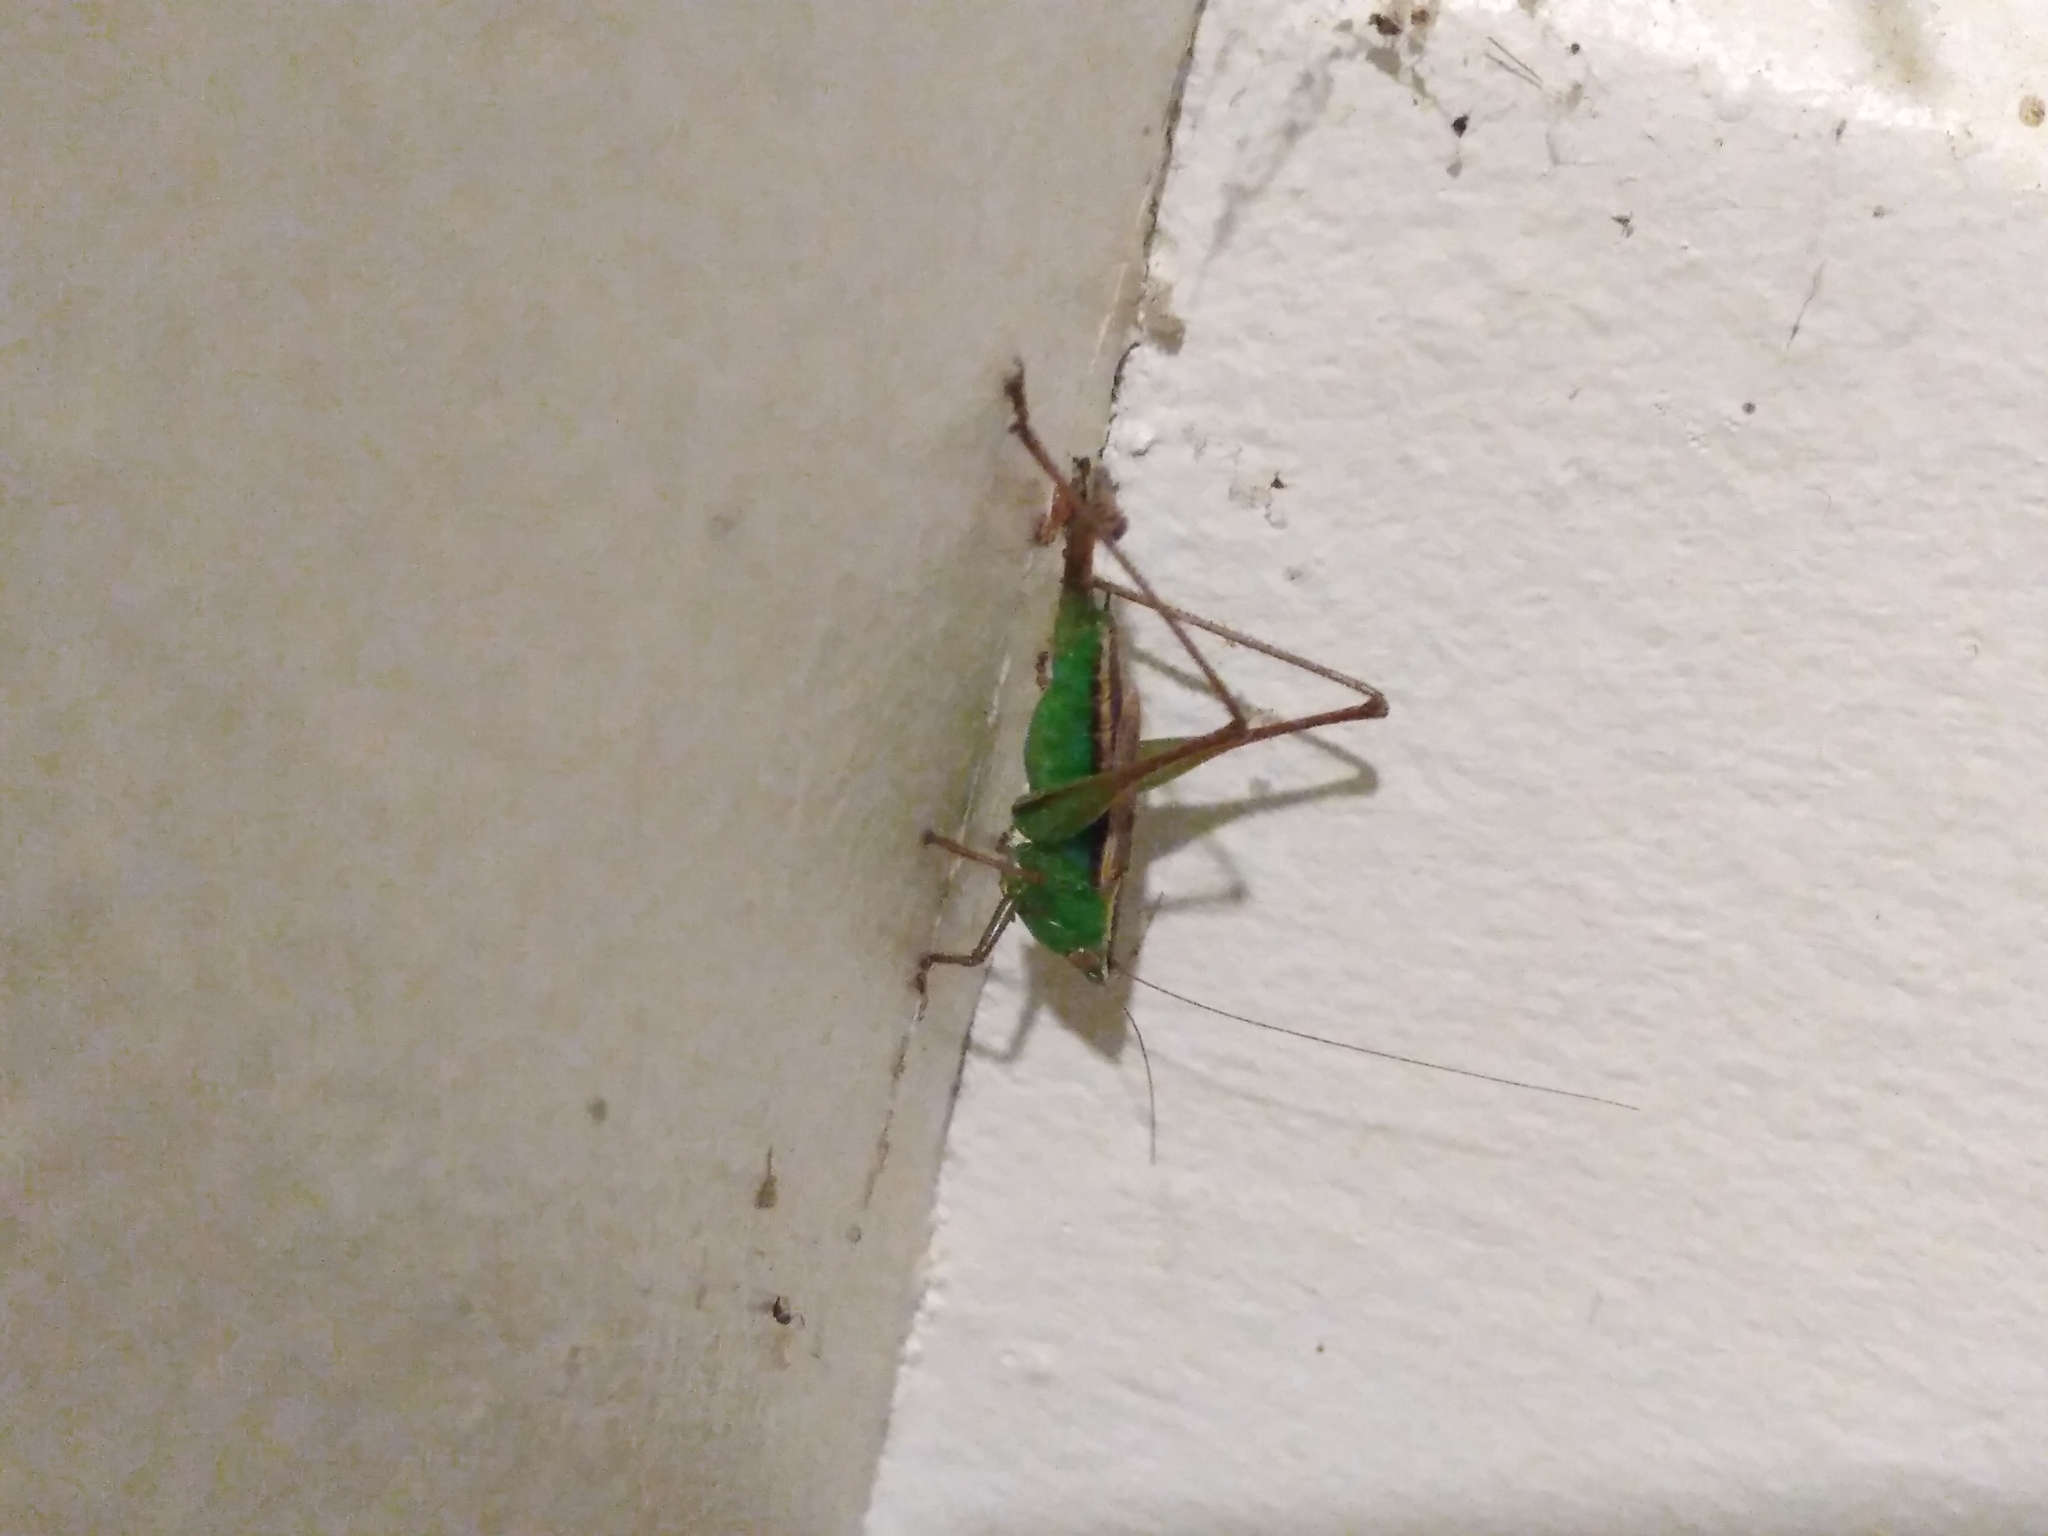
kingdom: Animalia
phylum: Arthropoda
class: Insecta
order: Orthoptera
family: Tettigoniidae
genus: Conocephalus
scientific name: Conocephalus albescens
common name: Whitish meadow katydid
